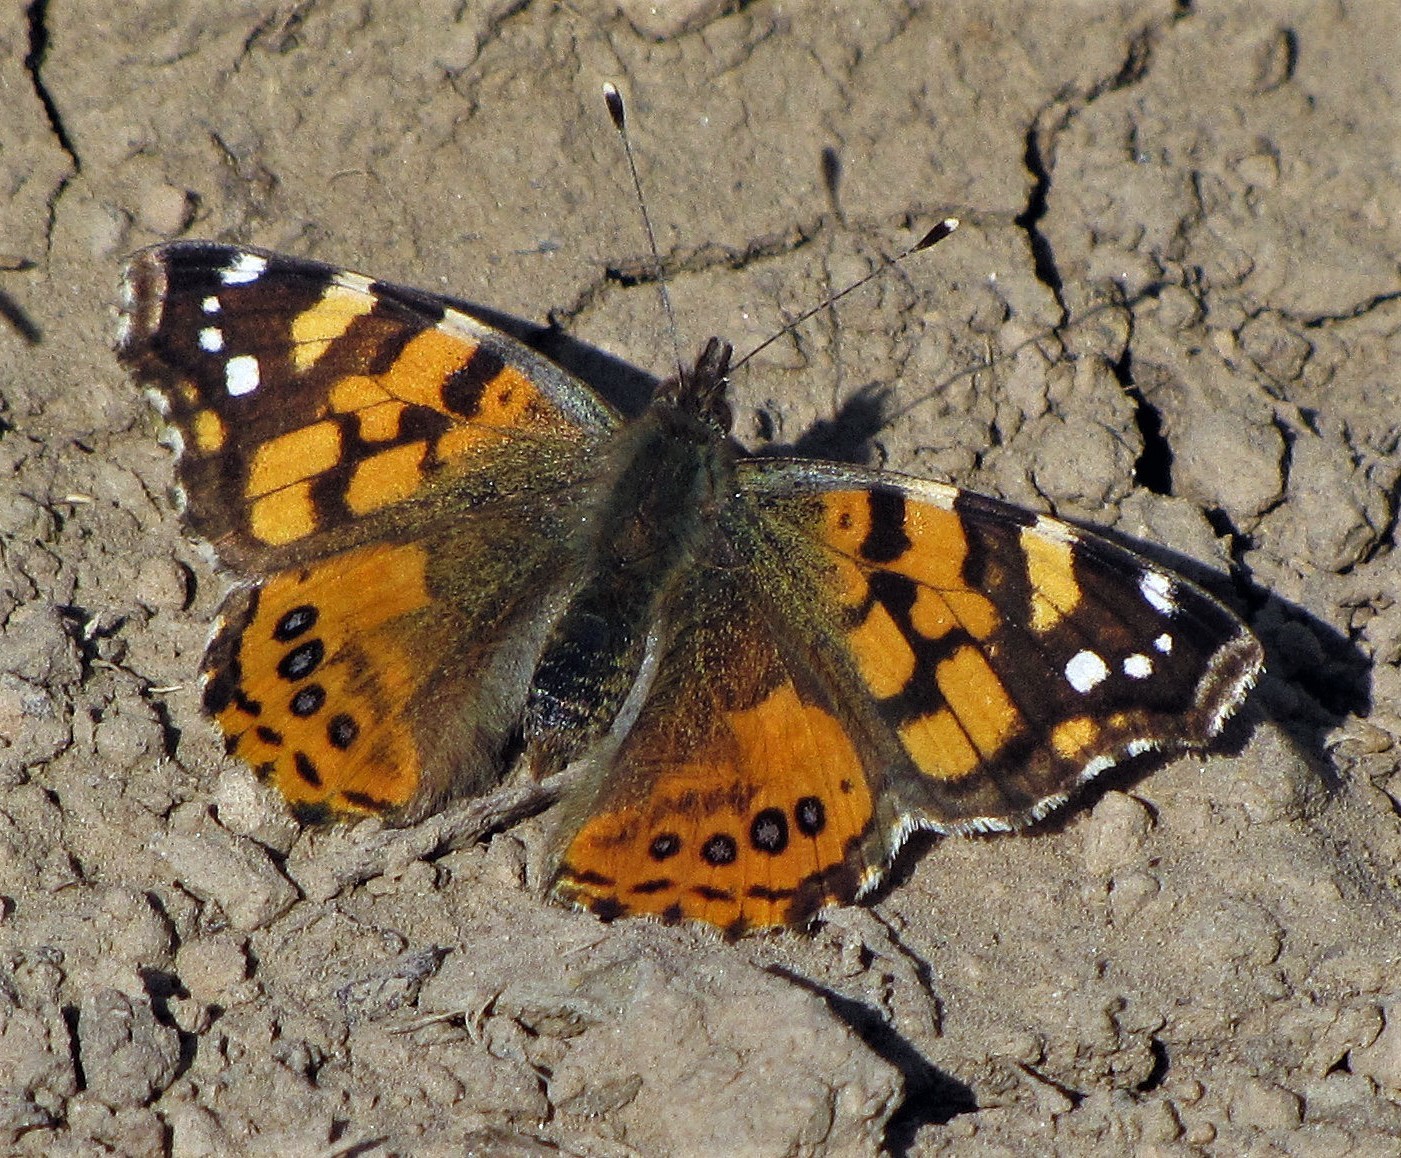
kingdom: Animalia
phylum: Arthropoda
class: Insecta
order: Lepidoptera
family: Nymphalidae
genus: Vanessa
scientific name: Vanessa carye
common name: Subtropical lady
